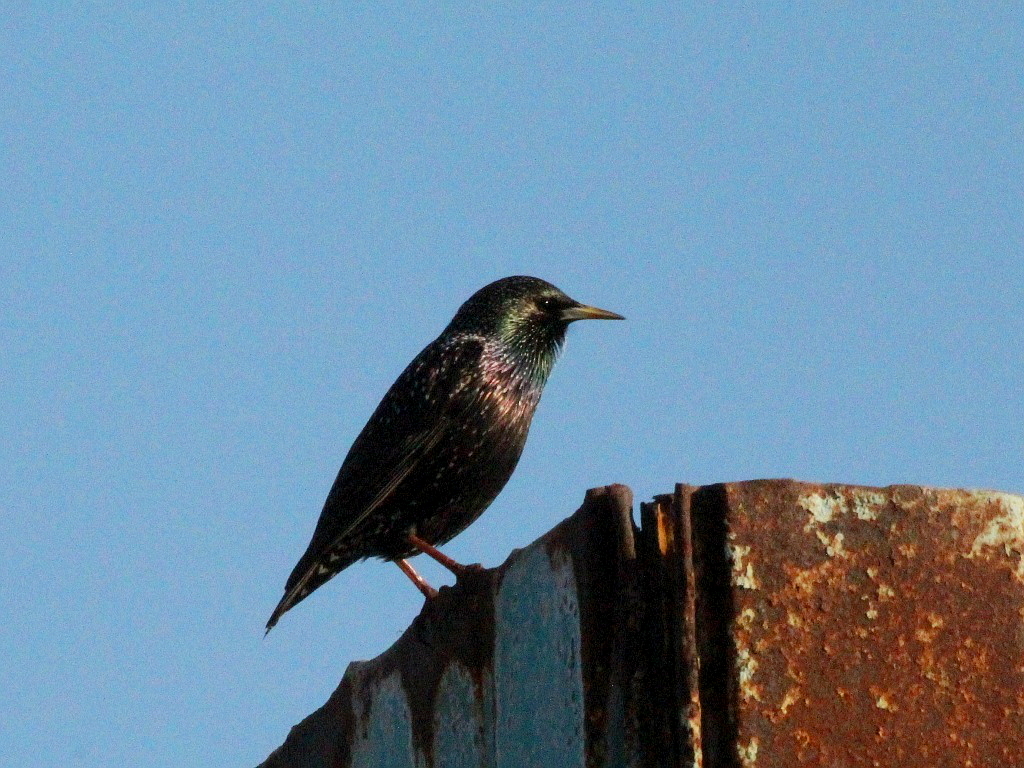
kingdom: Animalia
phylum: Chordata
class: Aves
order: Passeriformes
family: Sturnidae
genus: Sturnus
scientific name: Sturnus vulgaris
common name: Common starling
